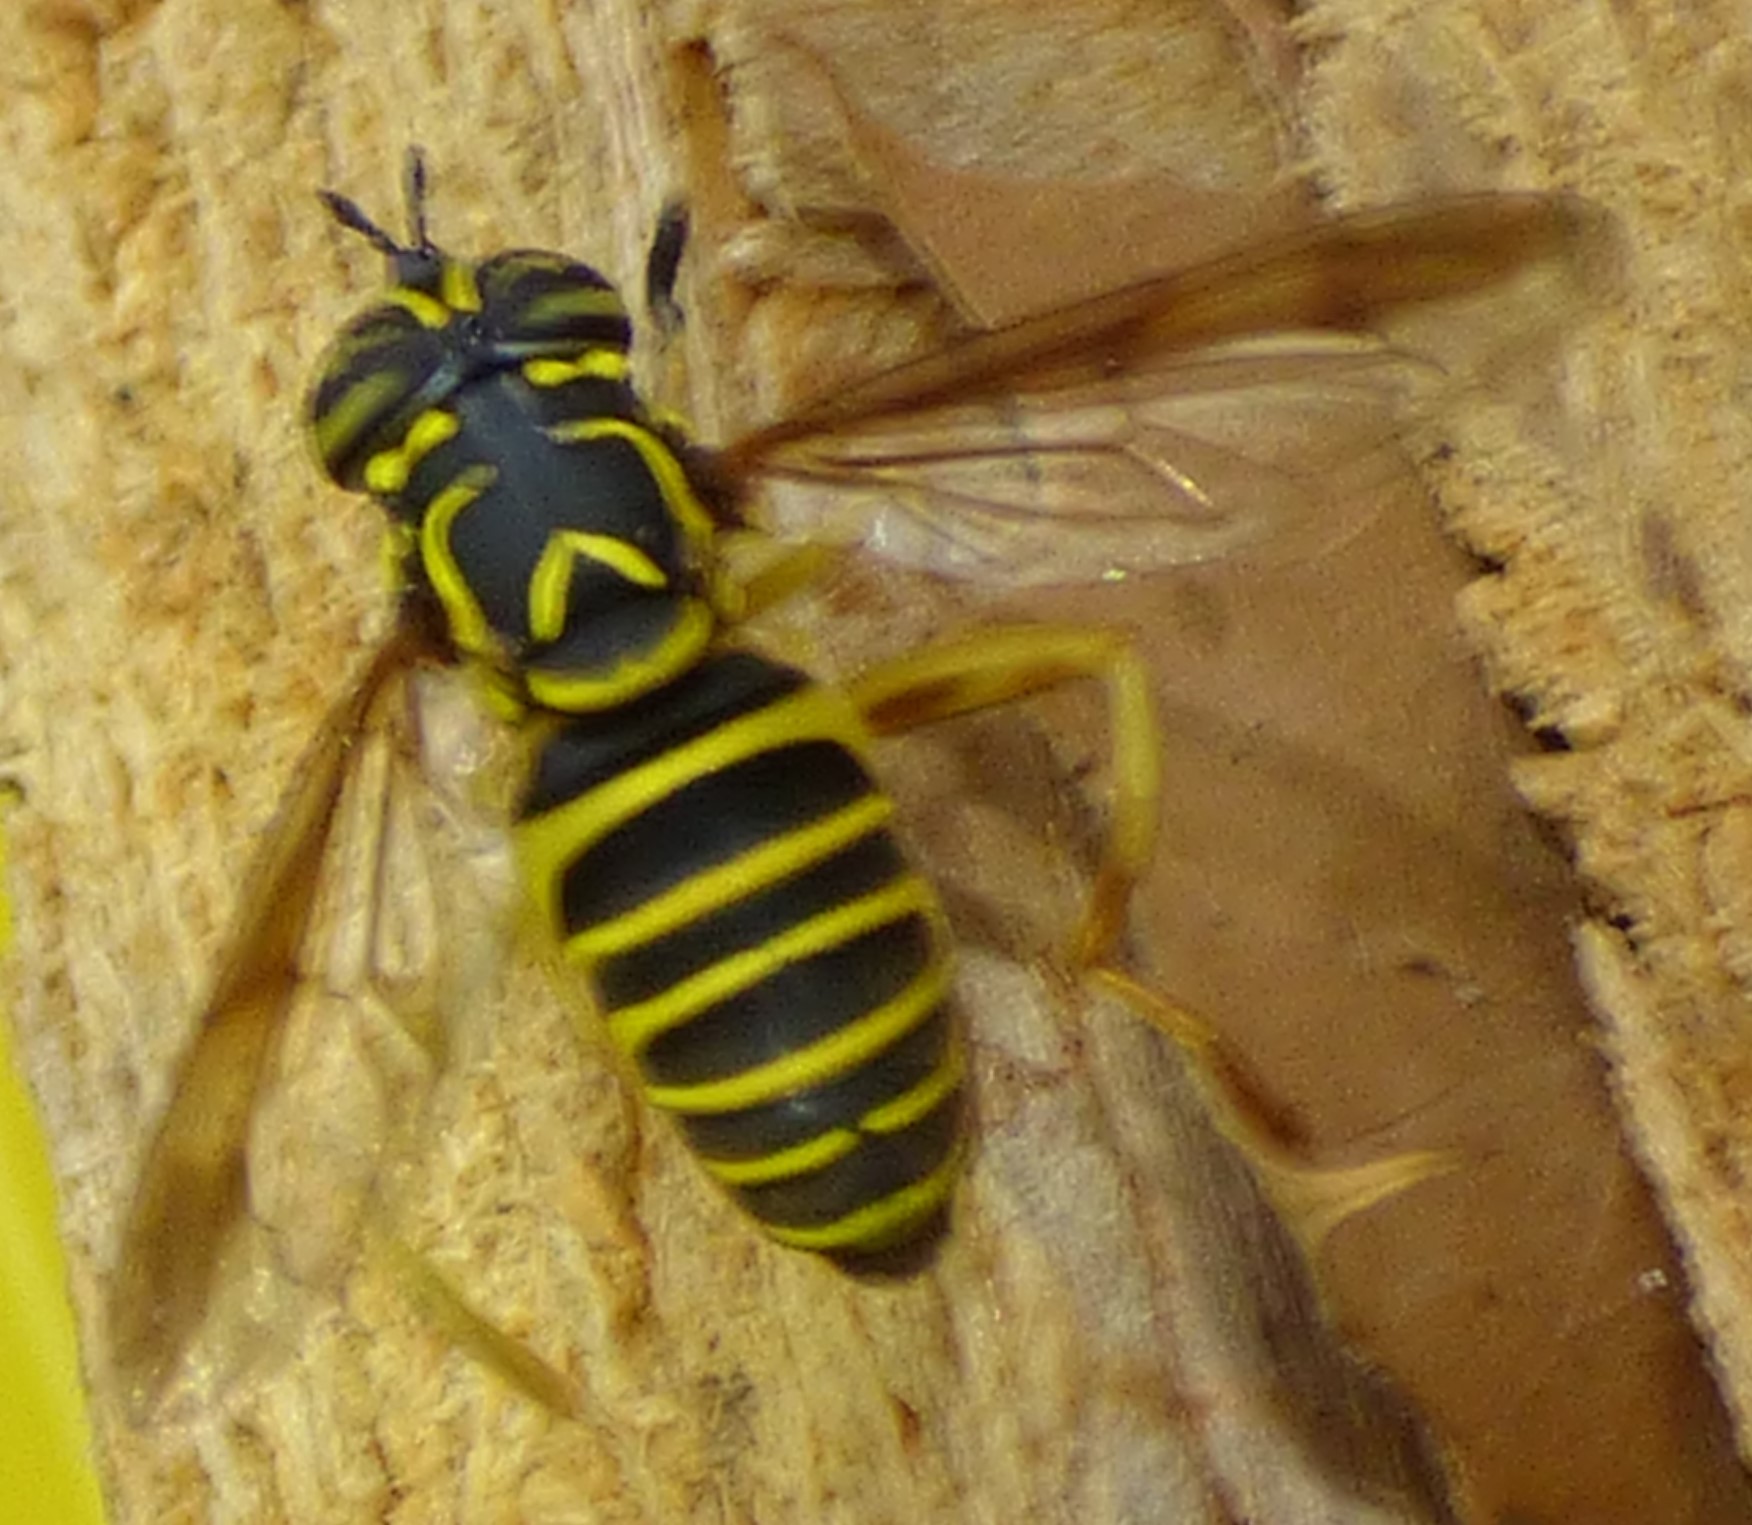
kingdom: Animalia
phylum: Arthropoda
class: Insecta
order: Diptera
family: Syrphidae
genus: Spilomyia
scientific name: Spilomyia longicornis
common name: Eastern hornet fly
